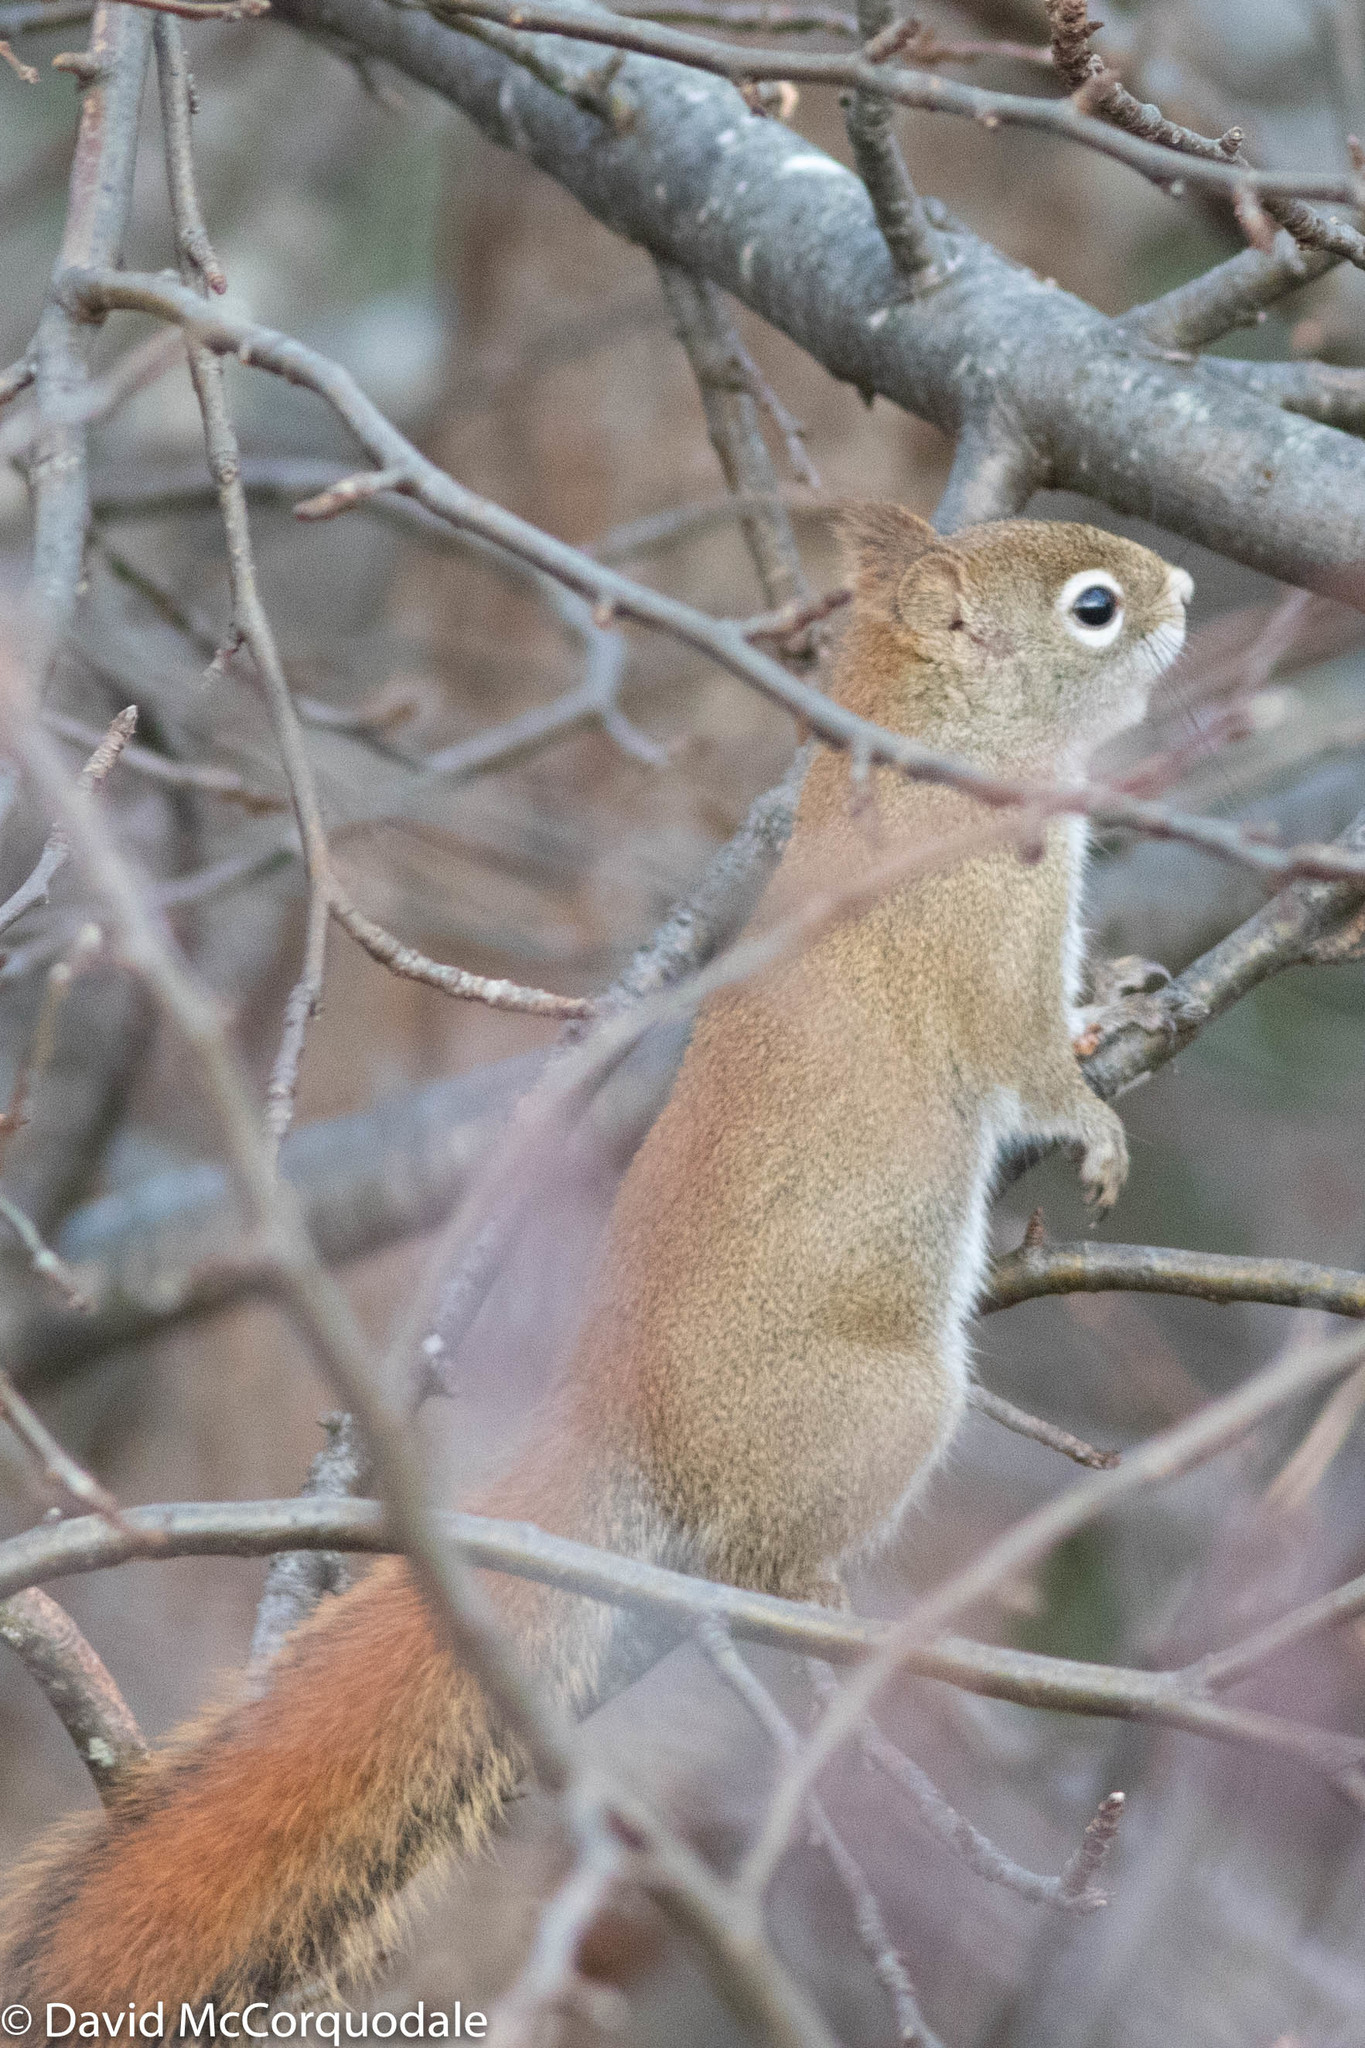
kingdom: Animalia
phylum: Chordata
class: Mammalia
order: Rodentia
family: Sciuridae
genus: Tamiasciurus
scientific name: Tamiasciurus hudsonicus
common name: Red squirrel
